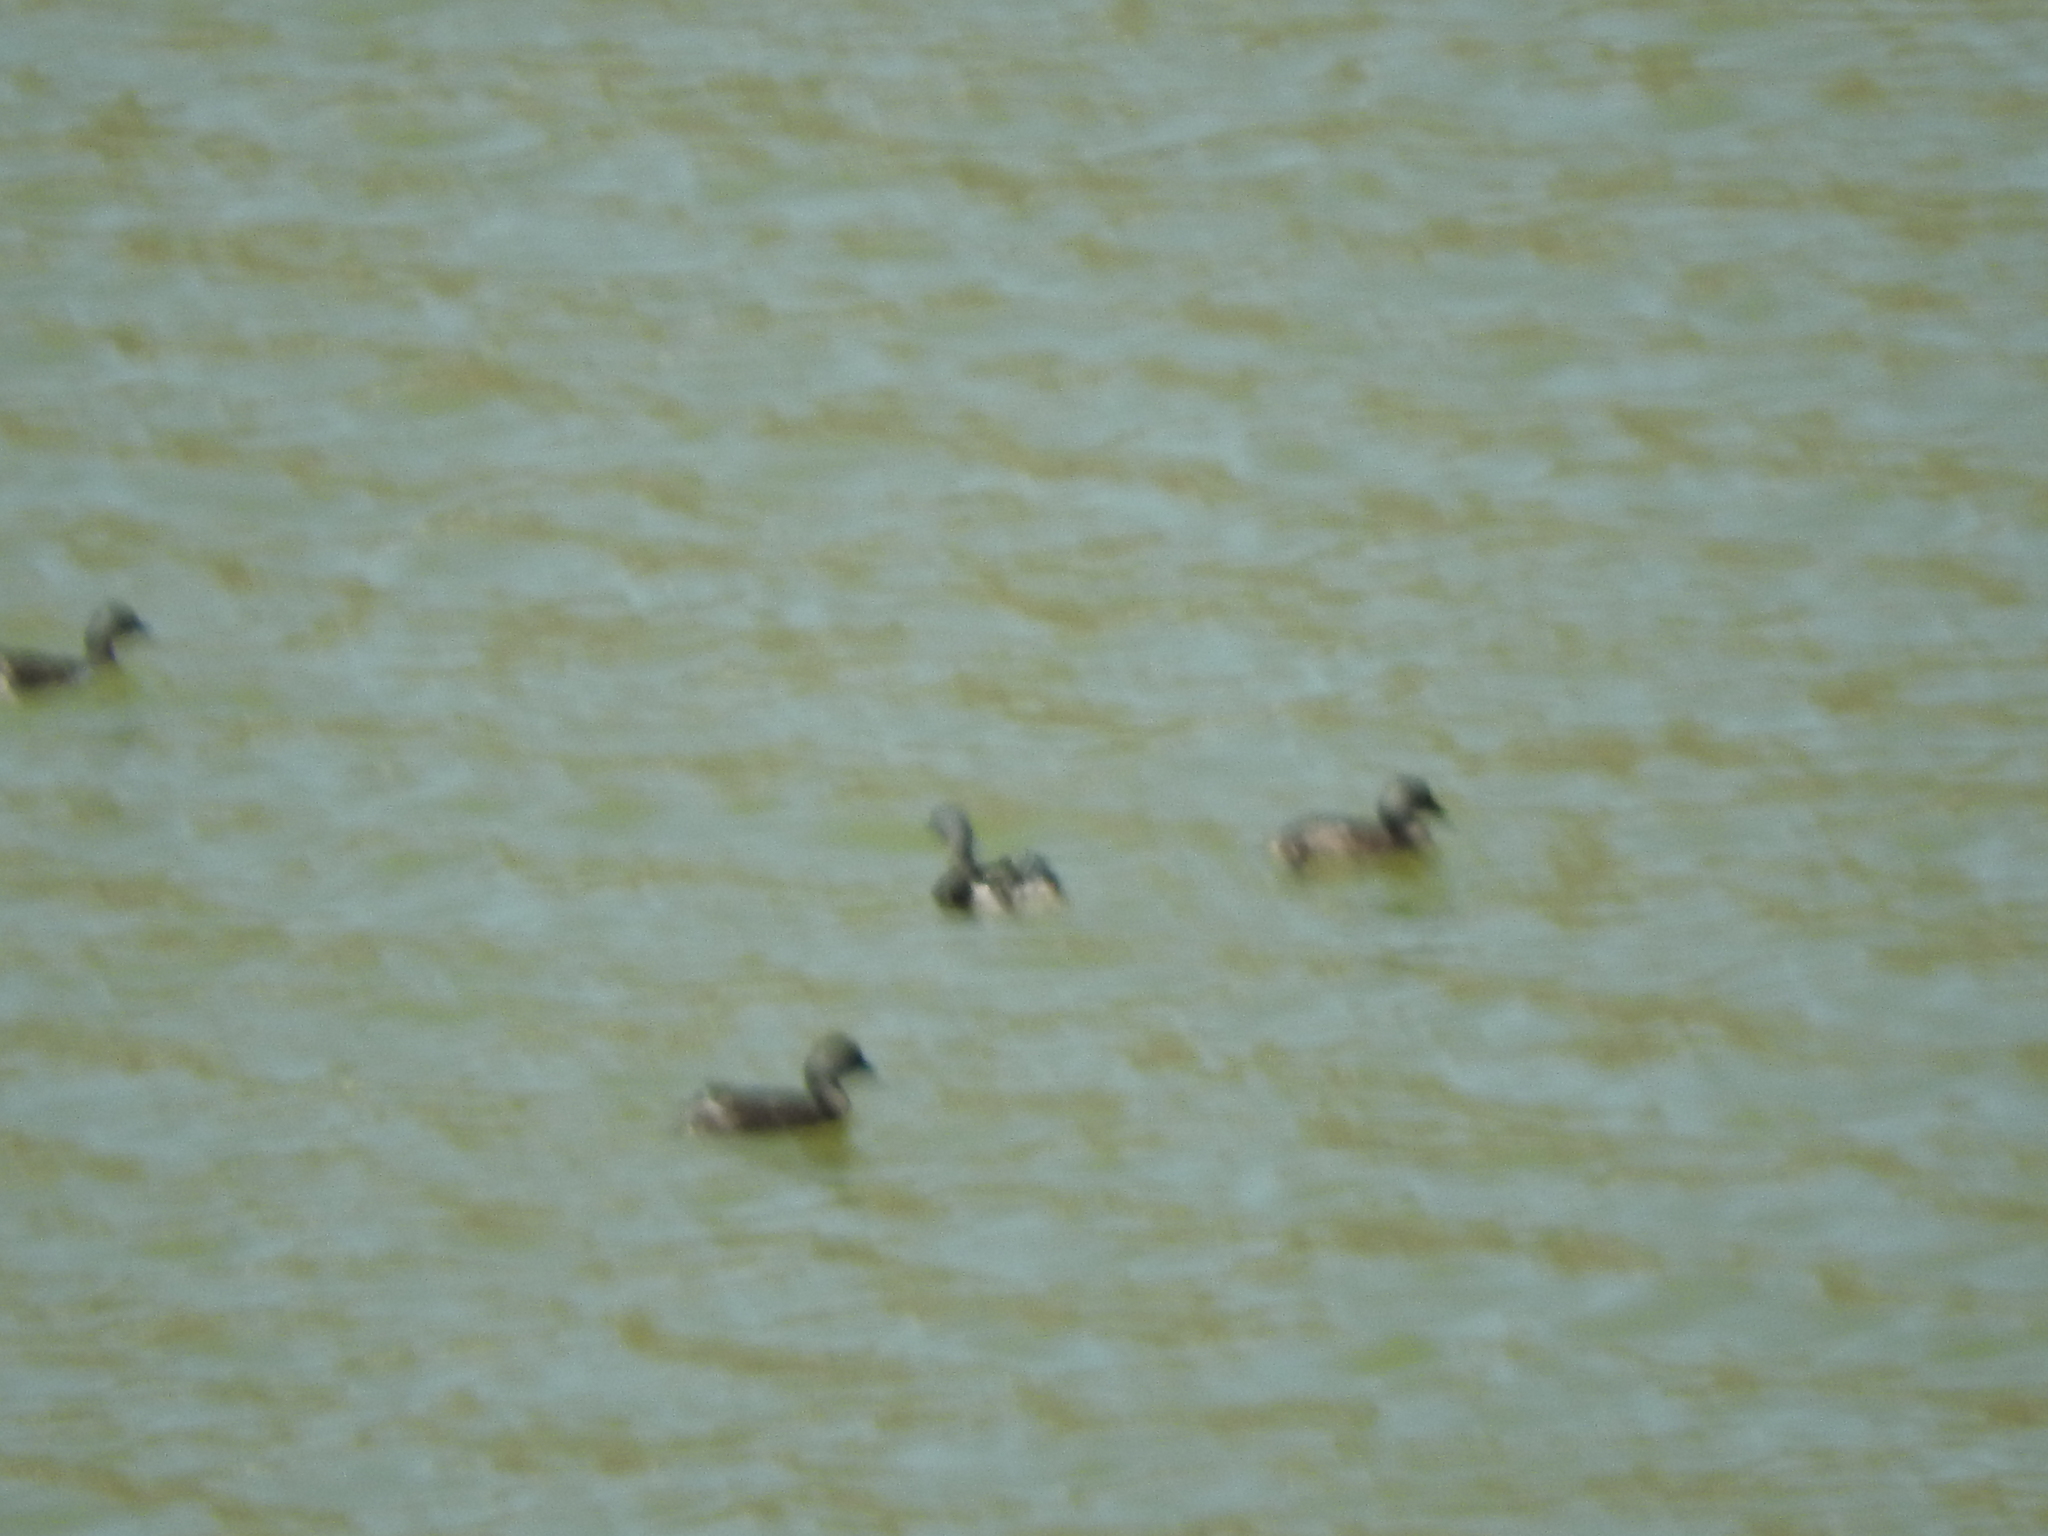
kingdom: Animalia
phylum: Chordata
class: Aves
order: Podicipediformes
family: Podicipedidae
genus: Tachybaptus
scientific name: Tachybaptus dominicus
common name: Least grebe
